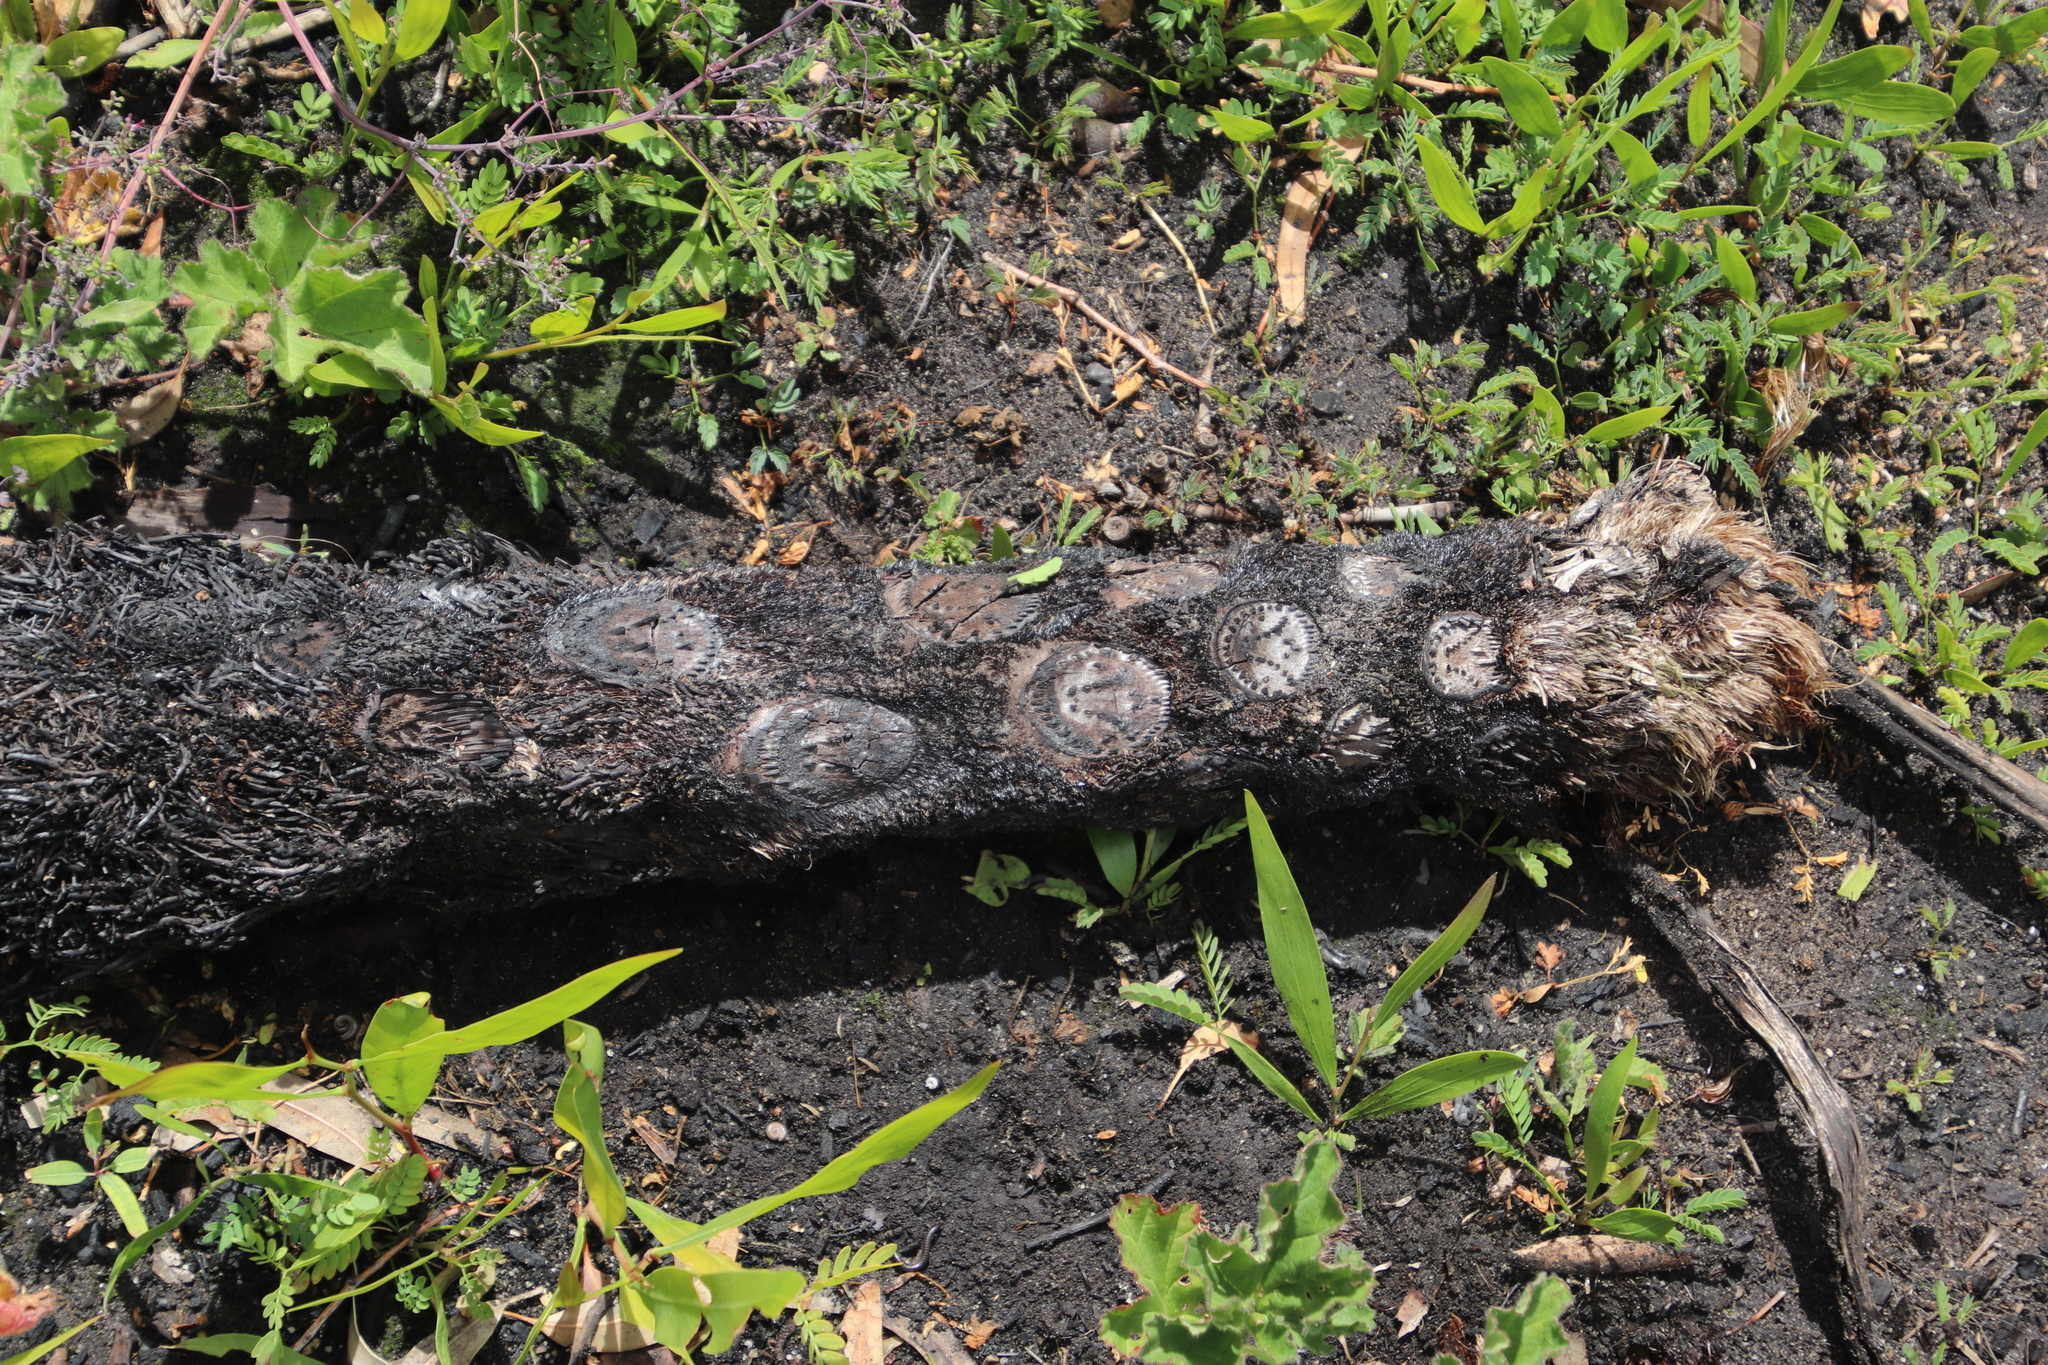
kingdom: Plantae
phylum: Tracheophyta
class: Polypodiopsida
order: Cyatheales
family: Cyatheaceae
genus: Sphaeropteris
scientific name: Sphaeropteris cooperi
